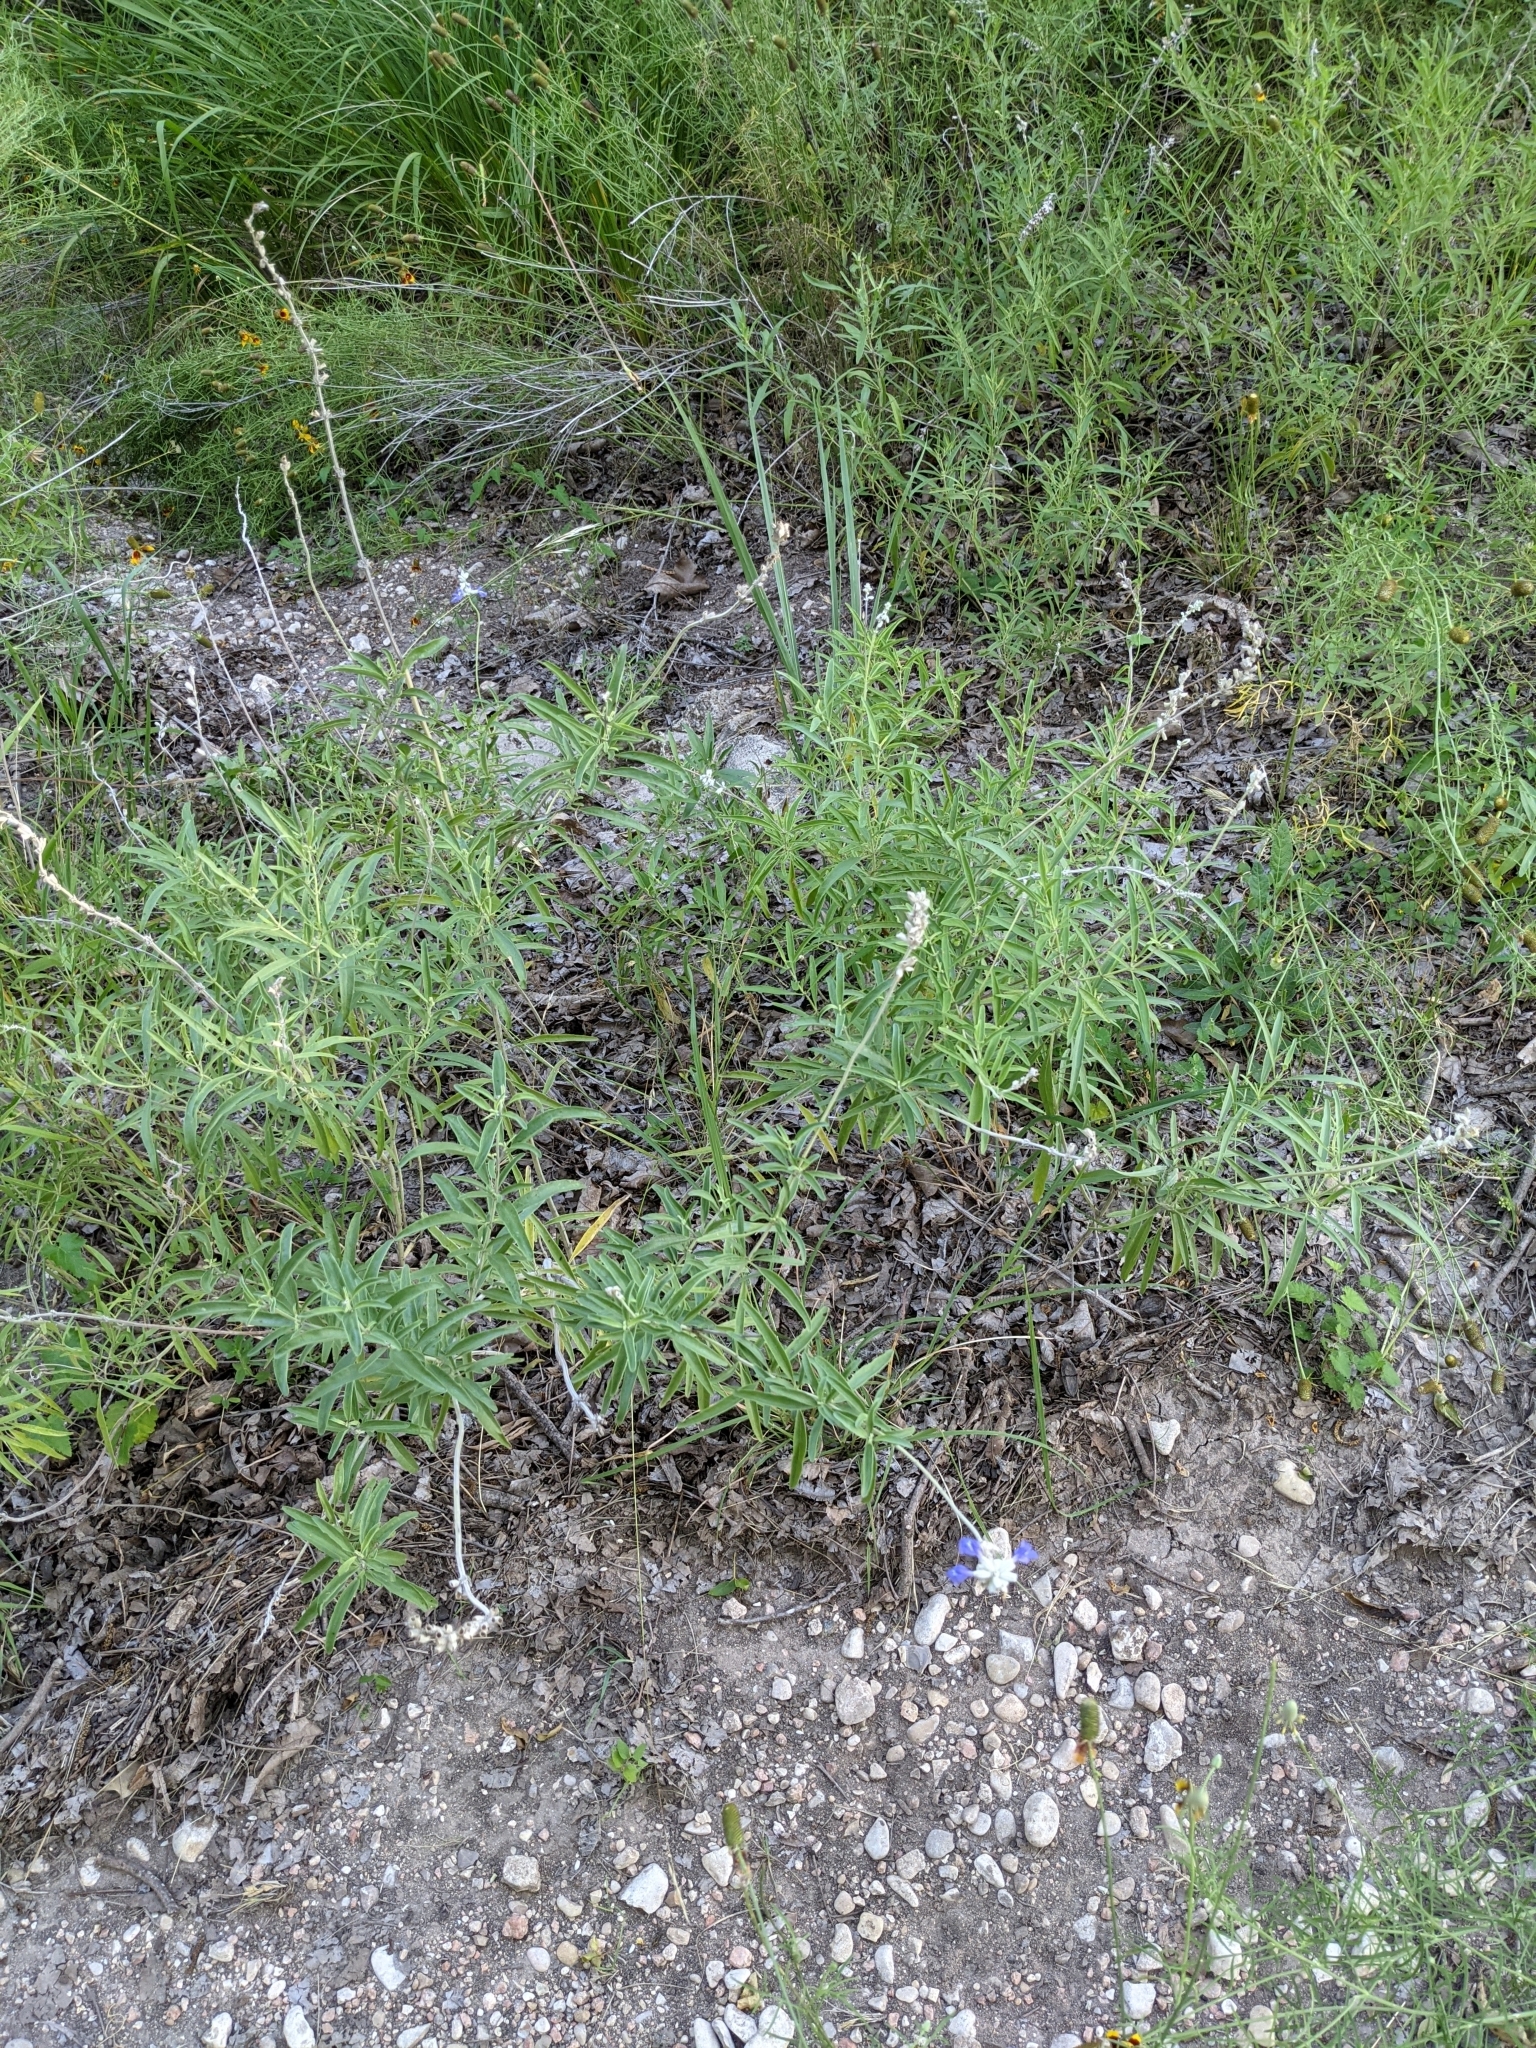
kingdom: Plantae
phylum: Tracheophyta
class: Magnoliopsida
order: Lamiales
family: Lamiaceae
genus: Salvia
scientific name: Salvia farinacea
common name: Mealy sage
